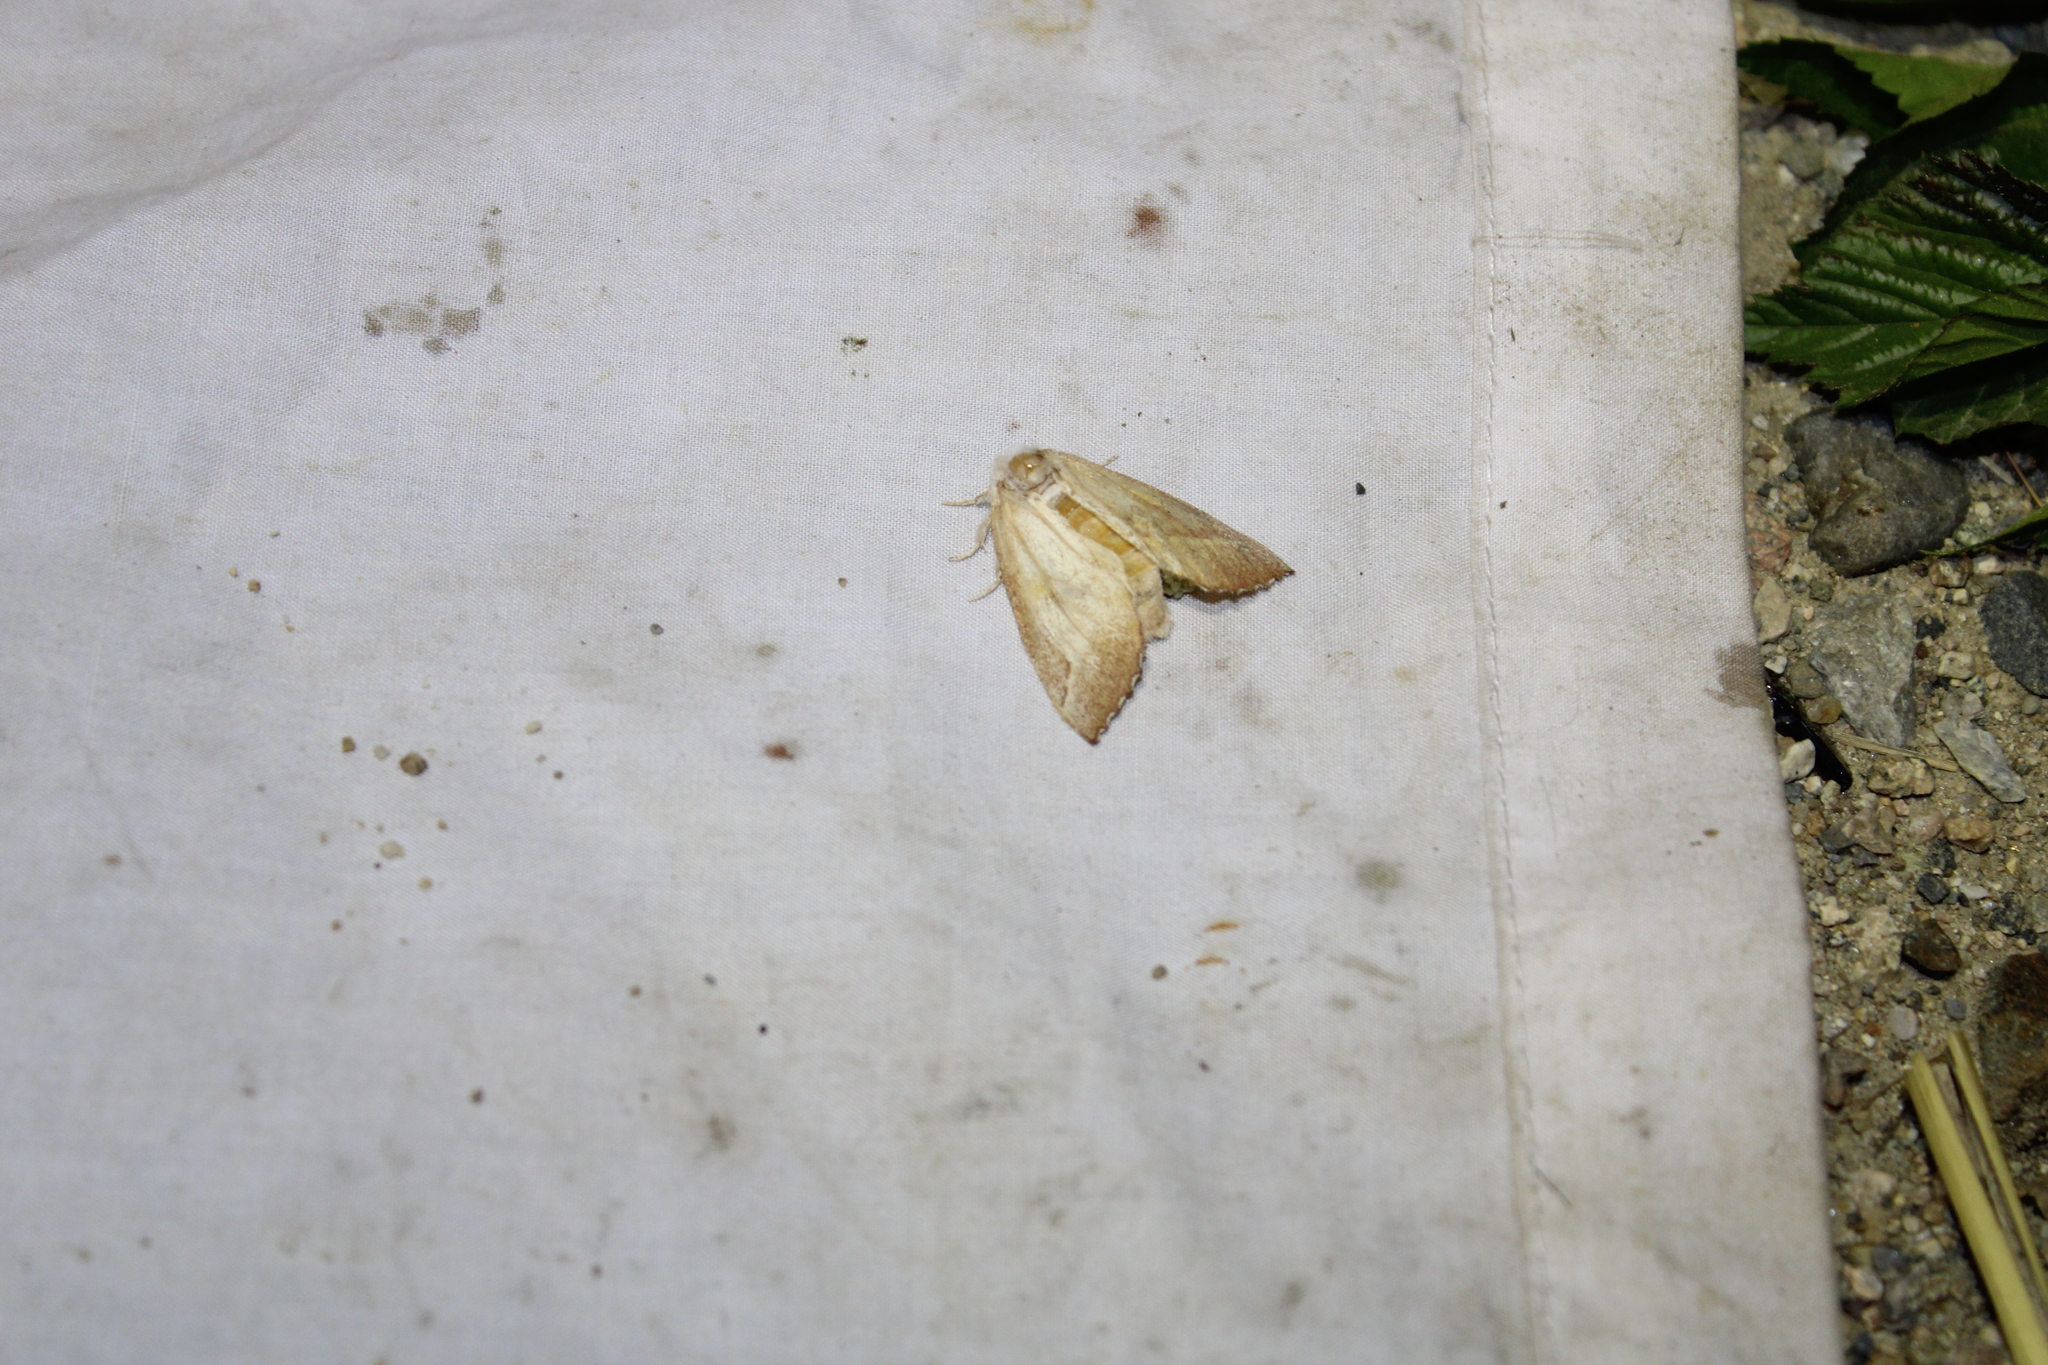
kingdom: Animalia
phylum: Arthropoda
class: Insecta
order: Lepidoptera
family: Notodontidae
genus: Nadata
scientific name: Nadata gibbosa
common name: White-dotted prominent
